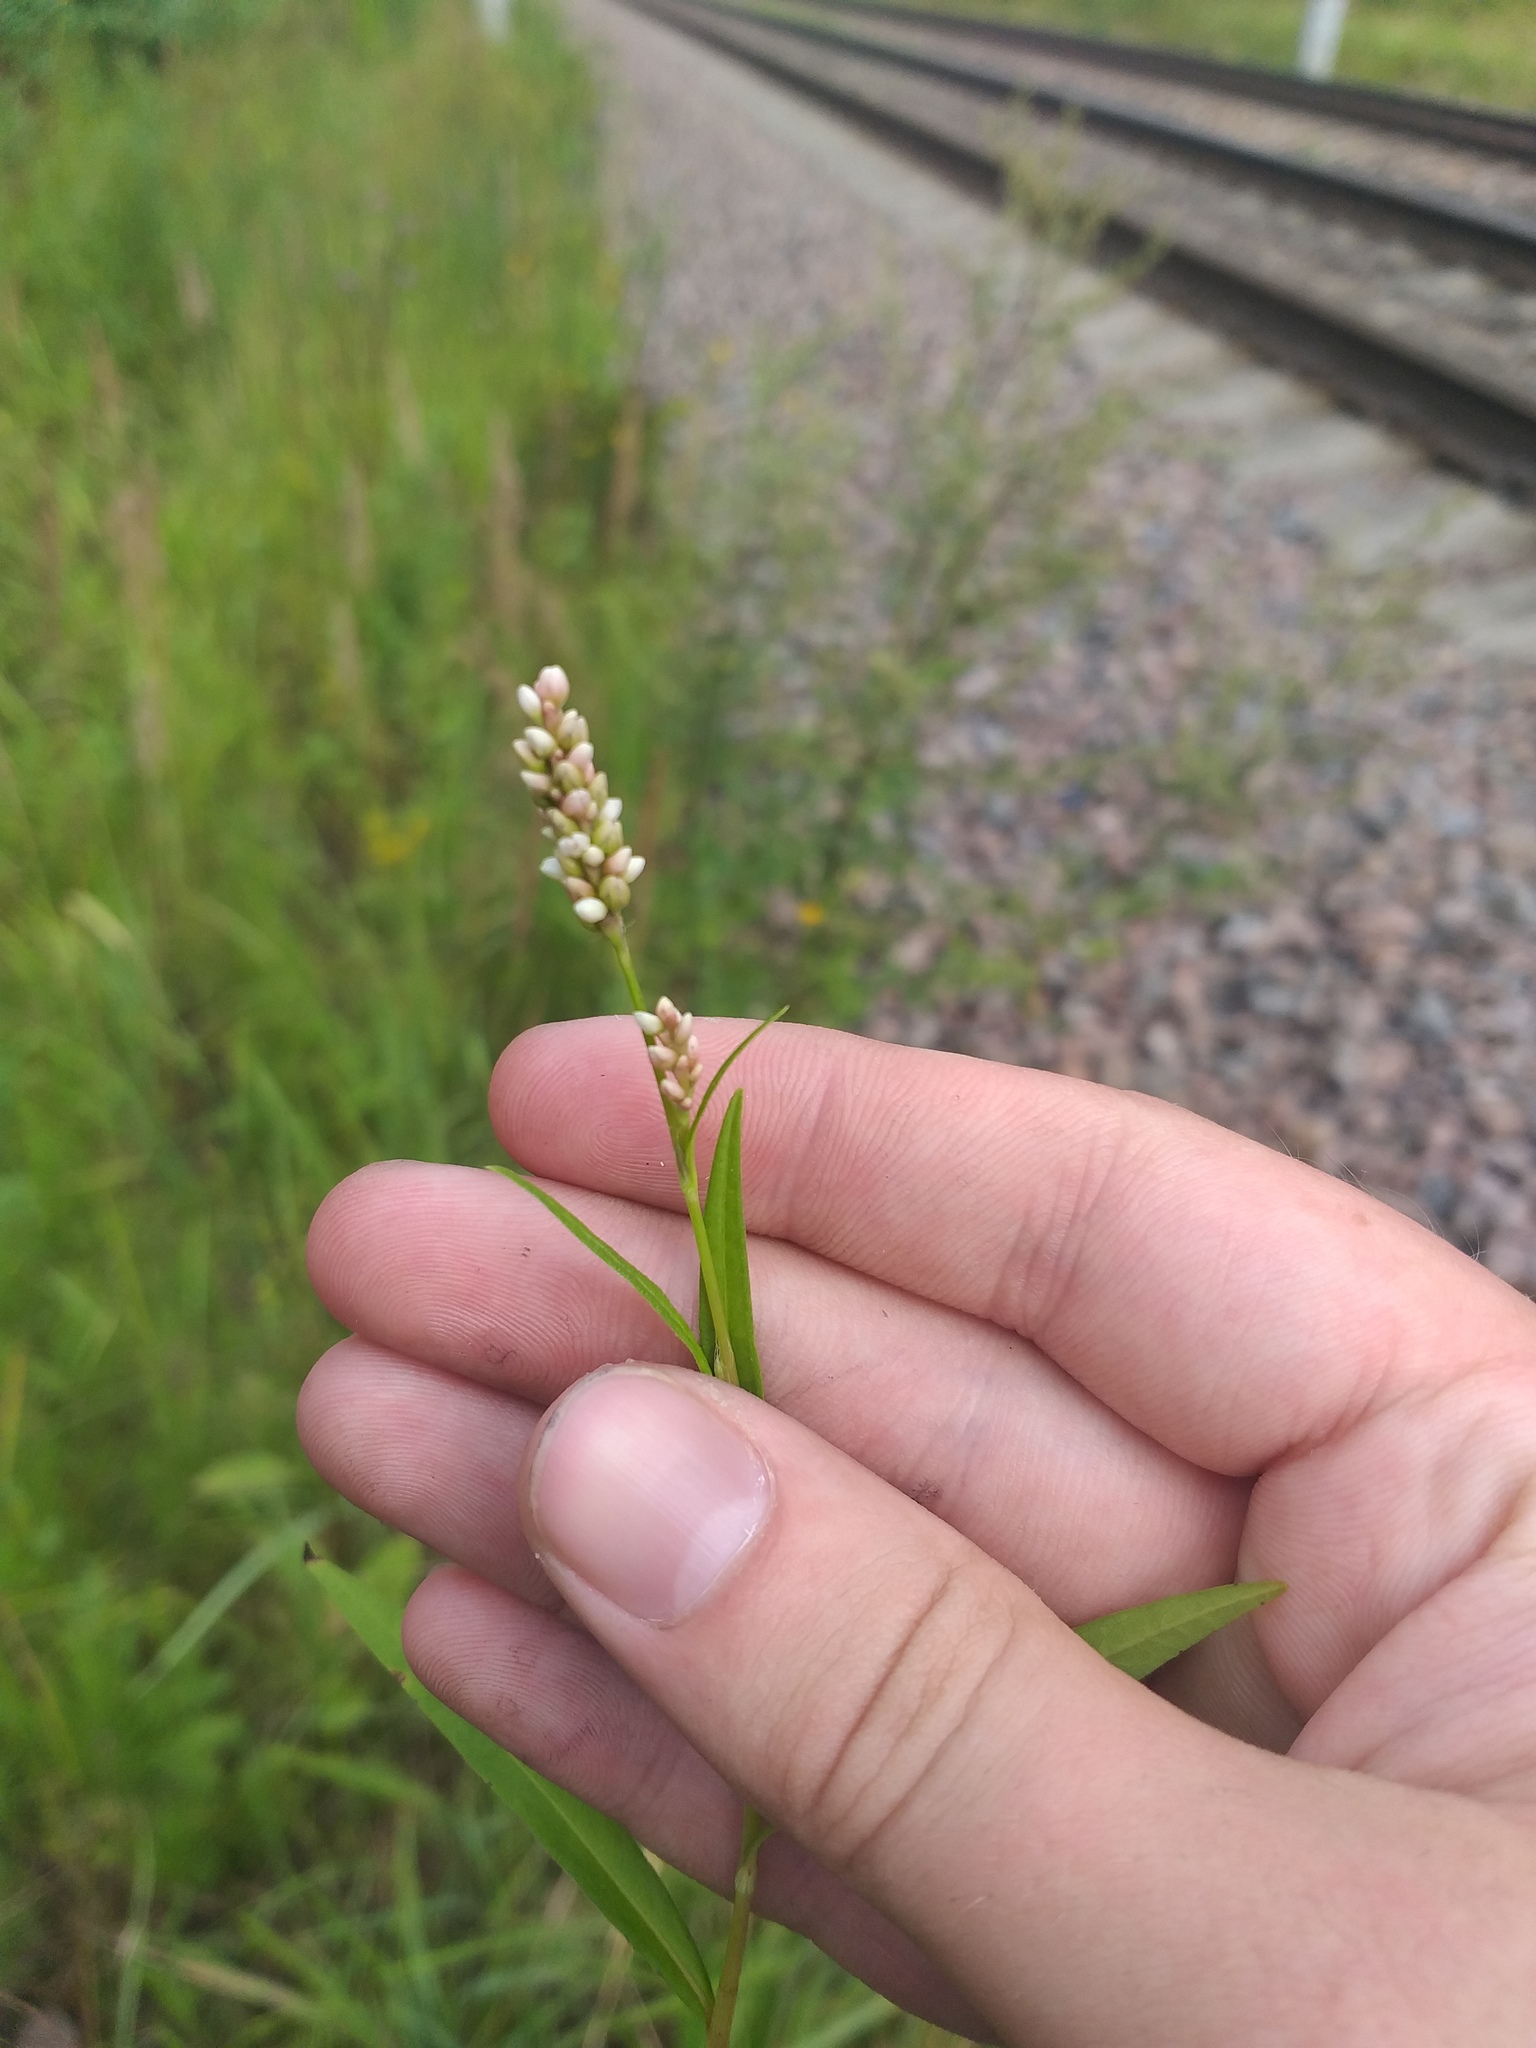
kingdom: Plantae
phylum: Tracheophyta
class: Magnoliopsida
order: Caryophyllales
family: Polygonaceae
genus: Persicaria
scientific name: Persicaria maculosa
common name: Redshank
